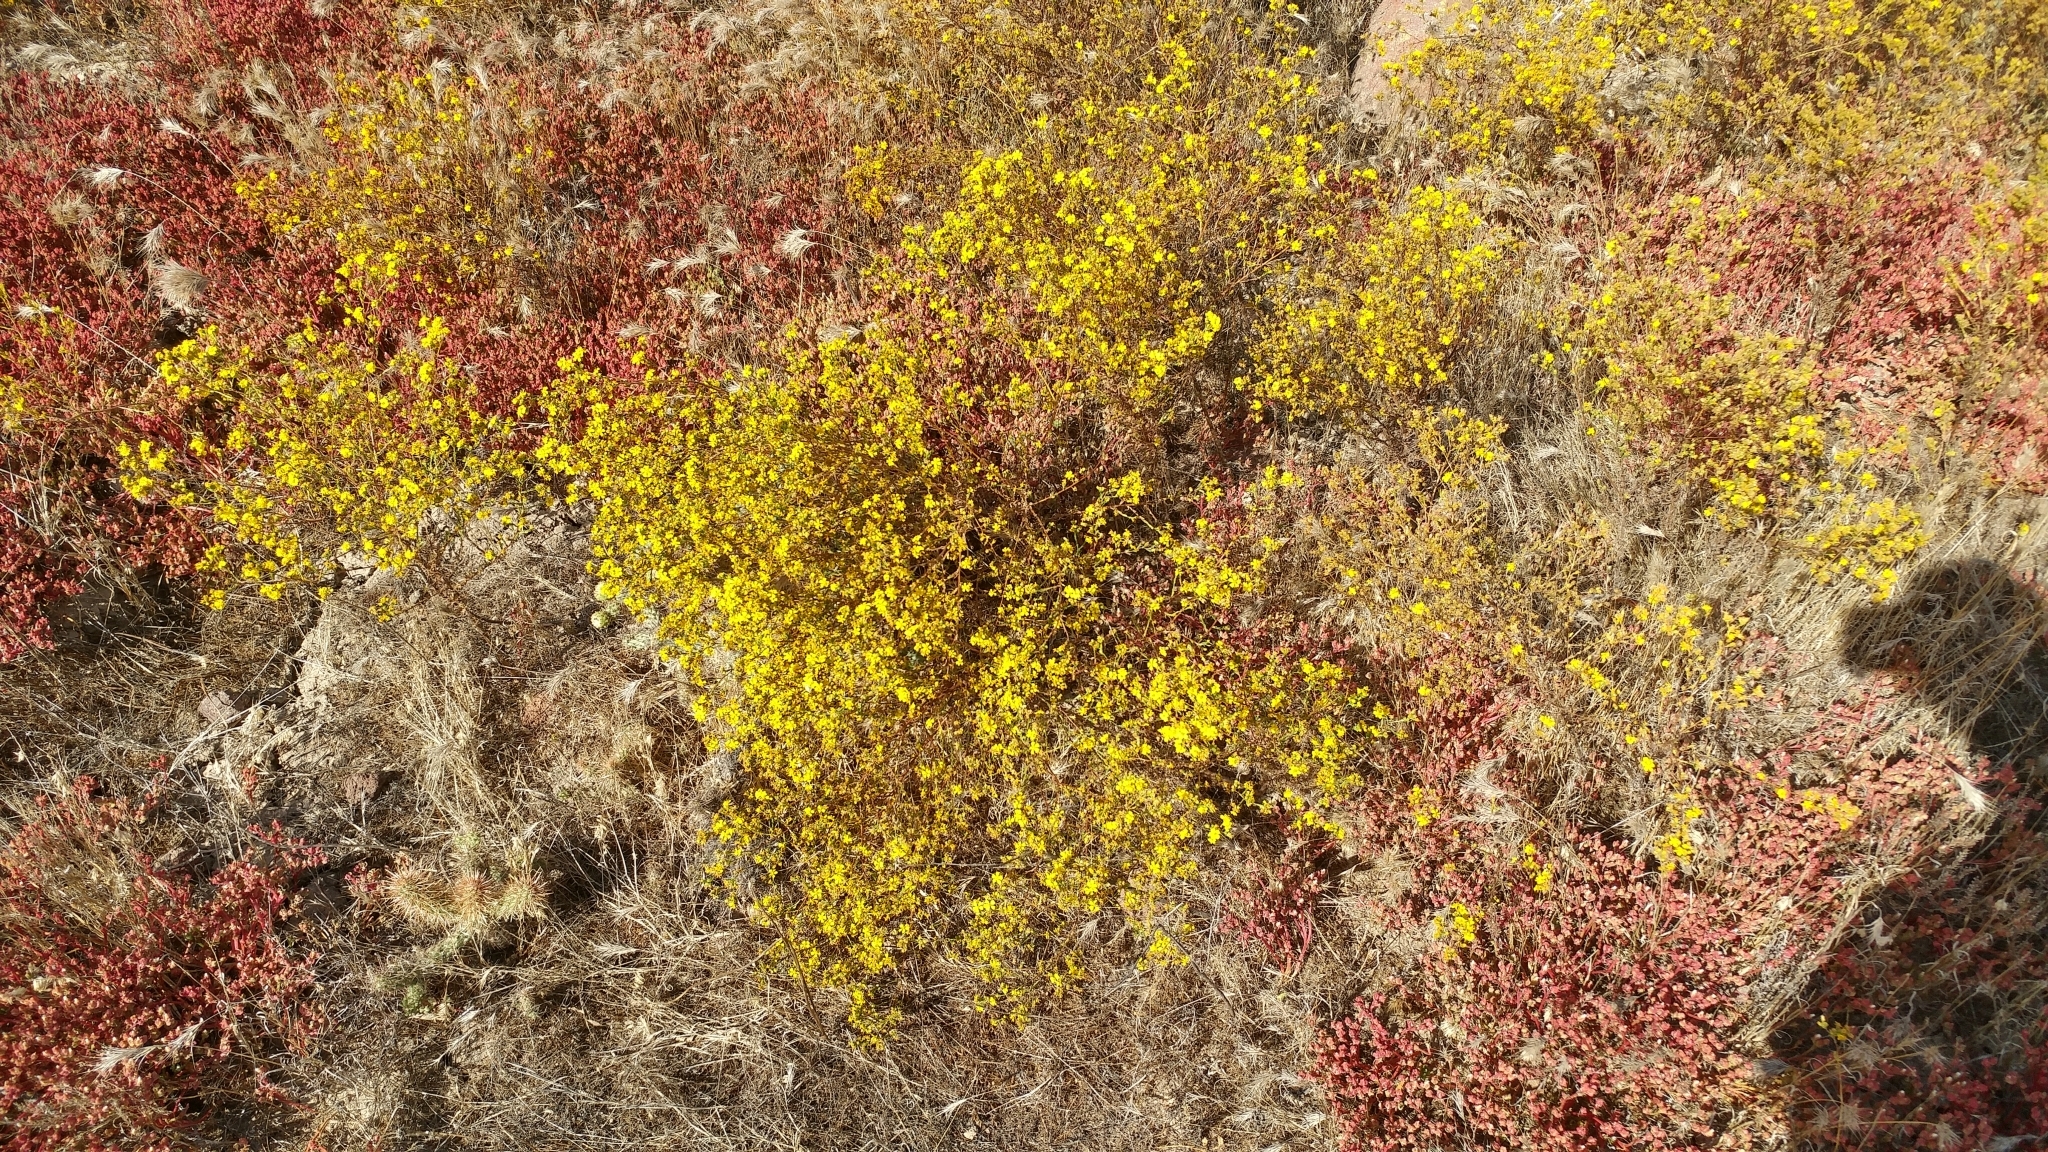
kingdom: Plantae
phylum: Tracheophyta
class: Magnoliopsida
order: Asterales
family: Asteraceae
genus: Deinandra
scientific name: Deinandra fasciculata
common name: Clustered tarweed
